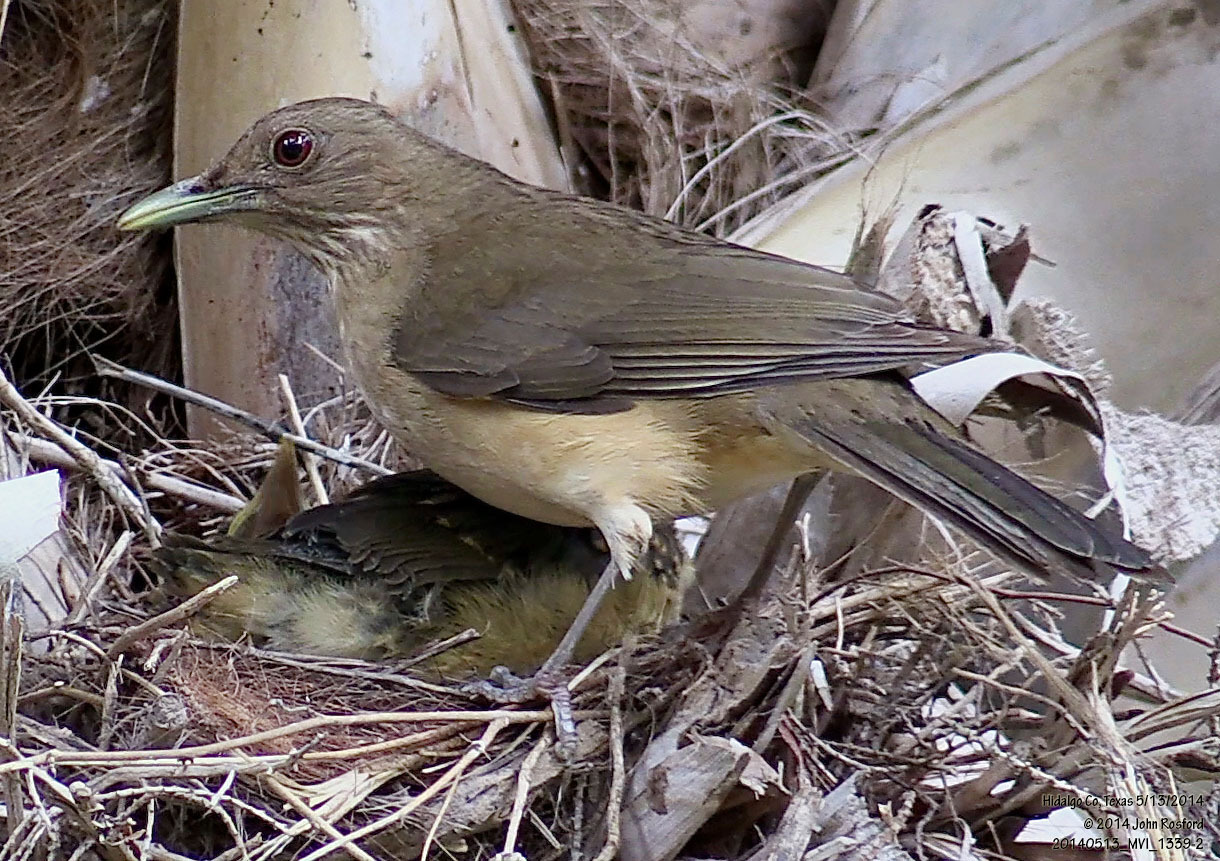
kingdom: Animalia
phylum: Chordata
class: Aves
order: Passeriformes
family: Turdidae
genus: Turdus
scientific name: Turdus grayi
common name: Clay-colored thrush
